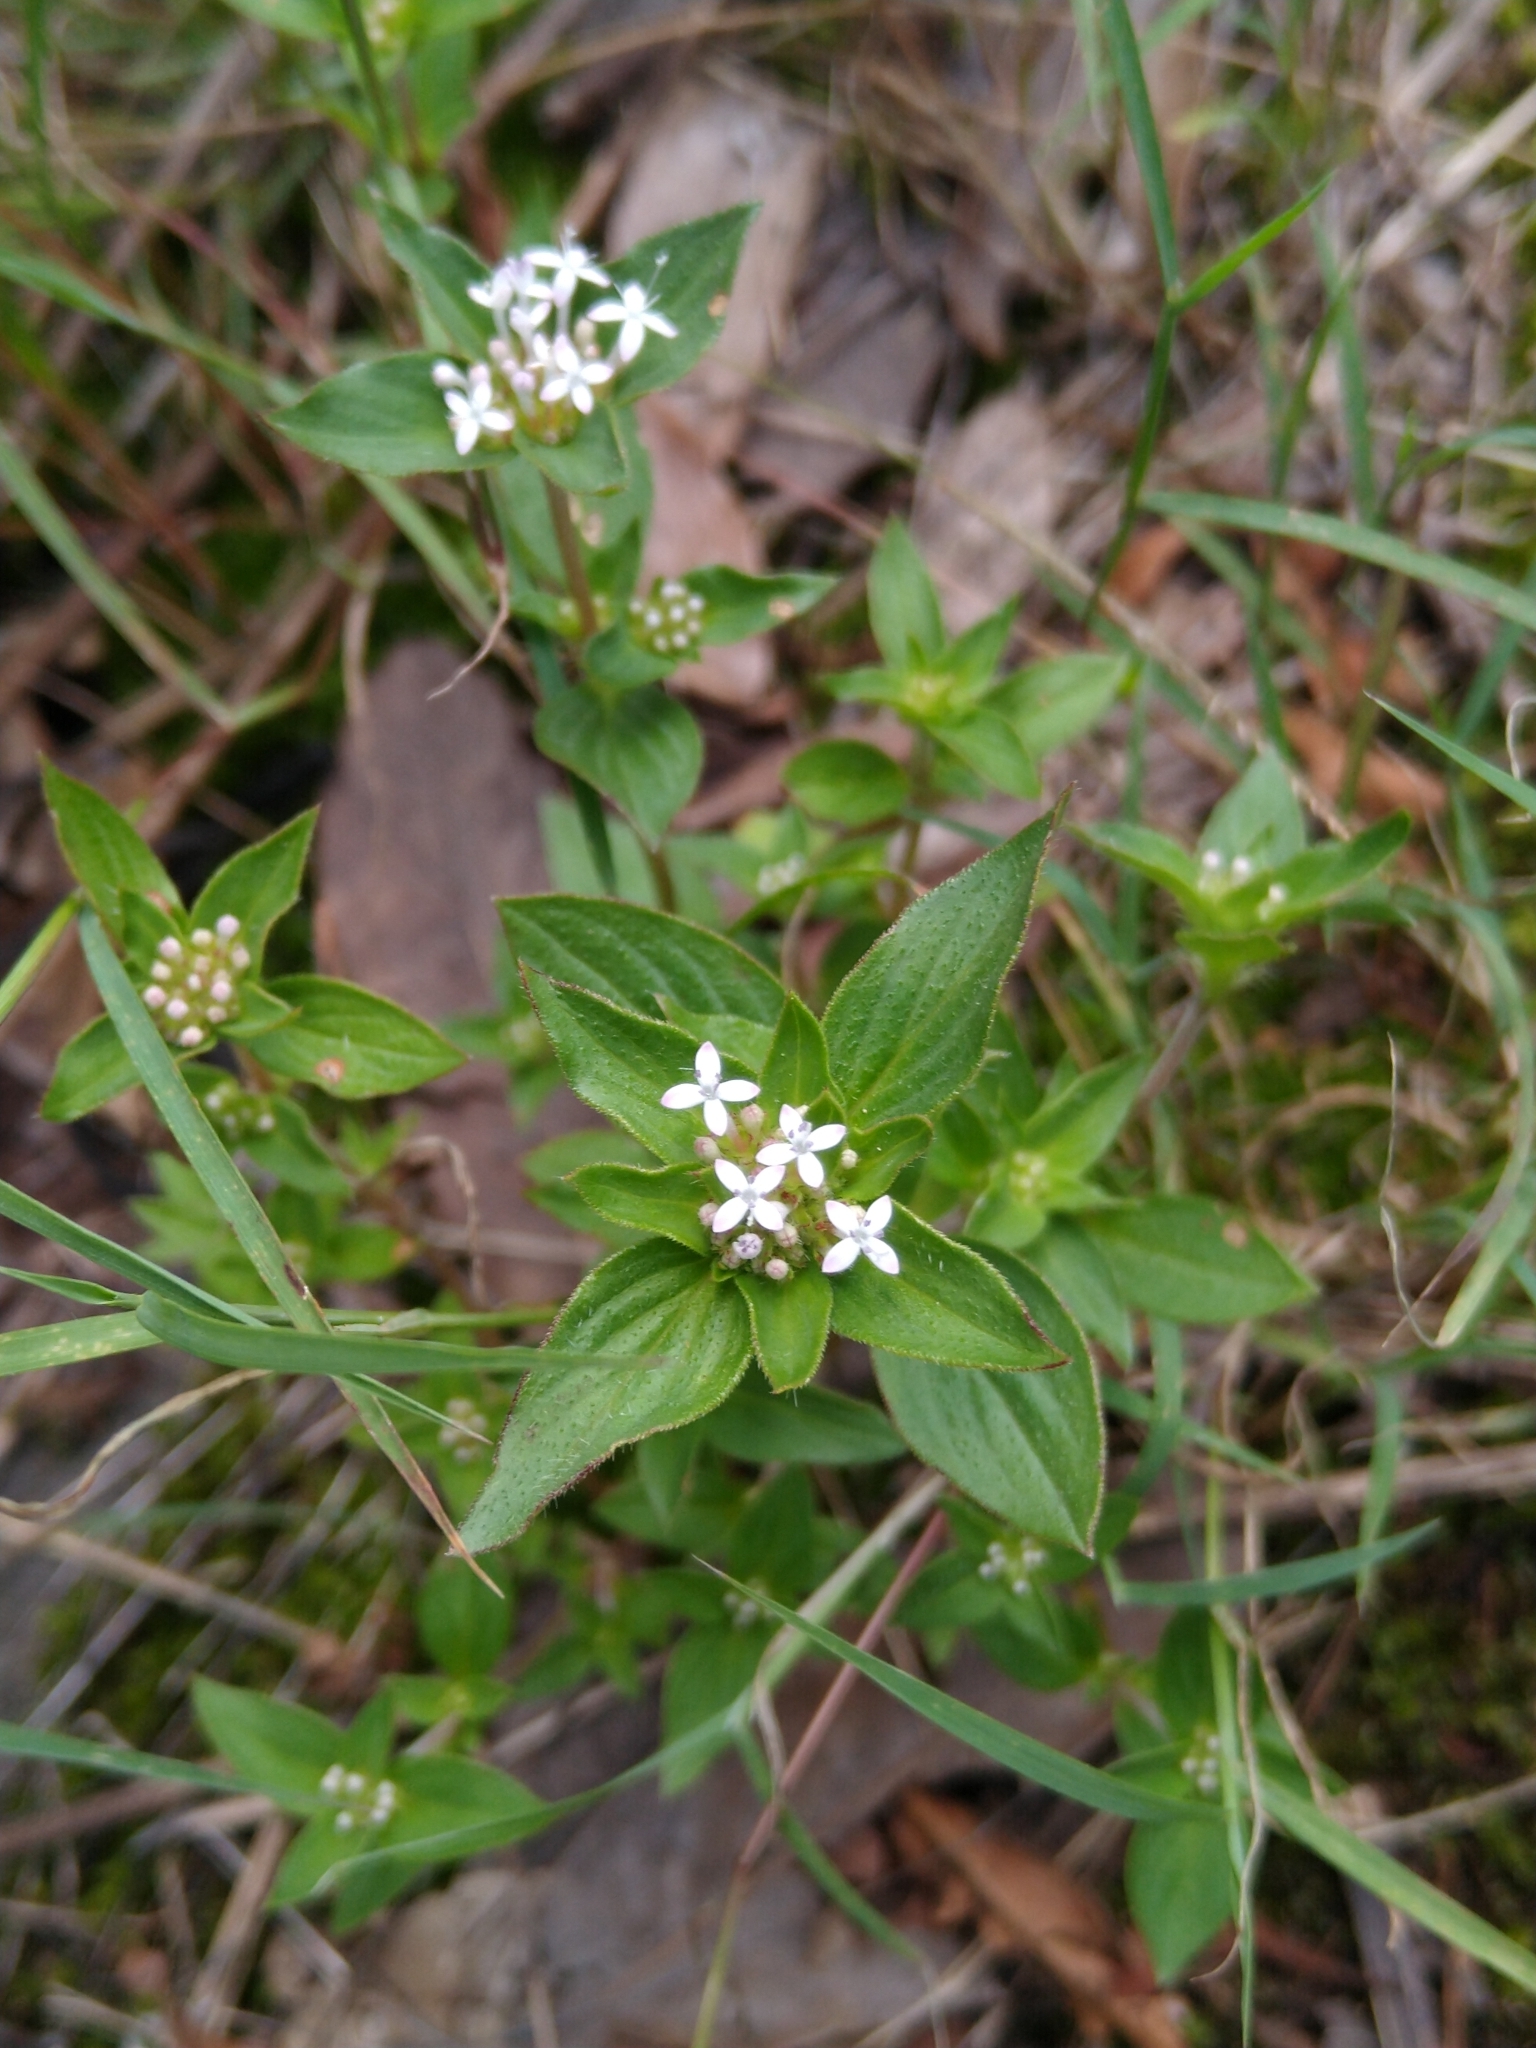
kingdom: Plantae
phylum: Tracheophyta
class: Magnoliopsida
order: Gentianales
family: Rubiaceae
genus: Crusea
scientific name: Crusea longiflora
